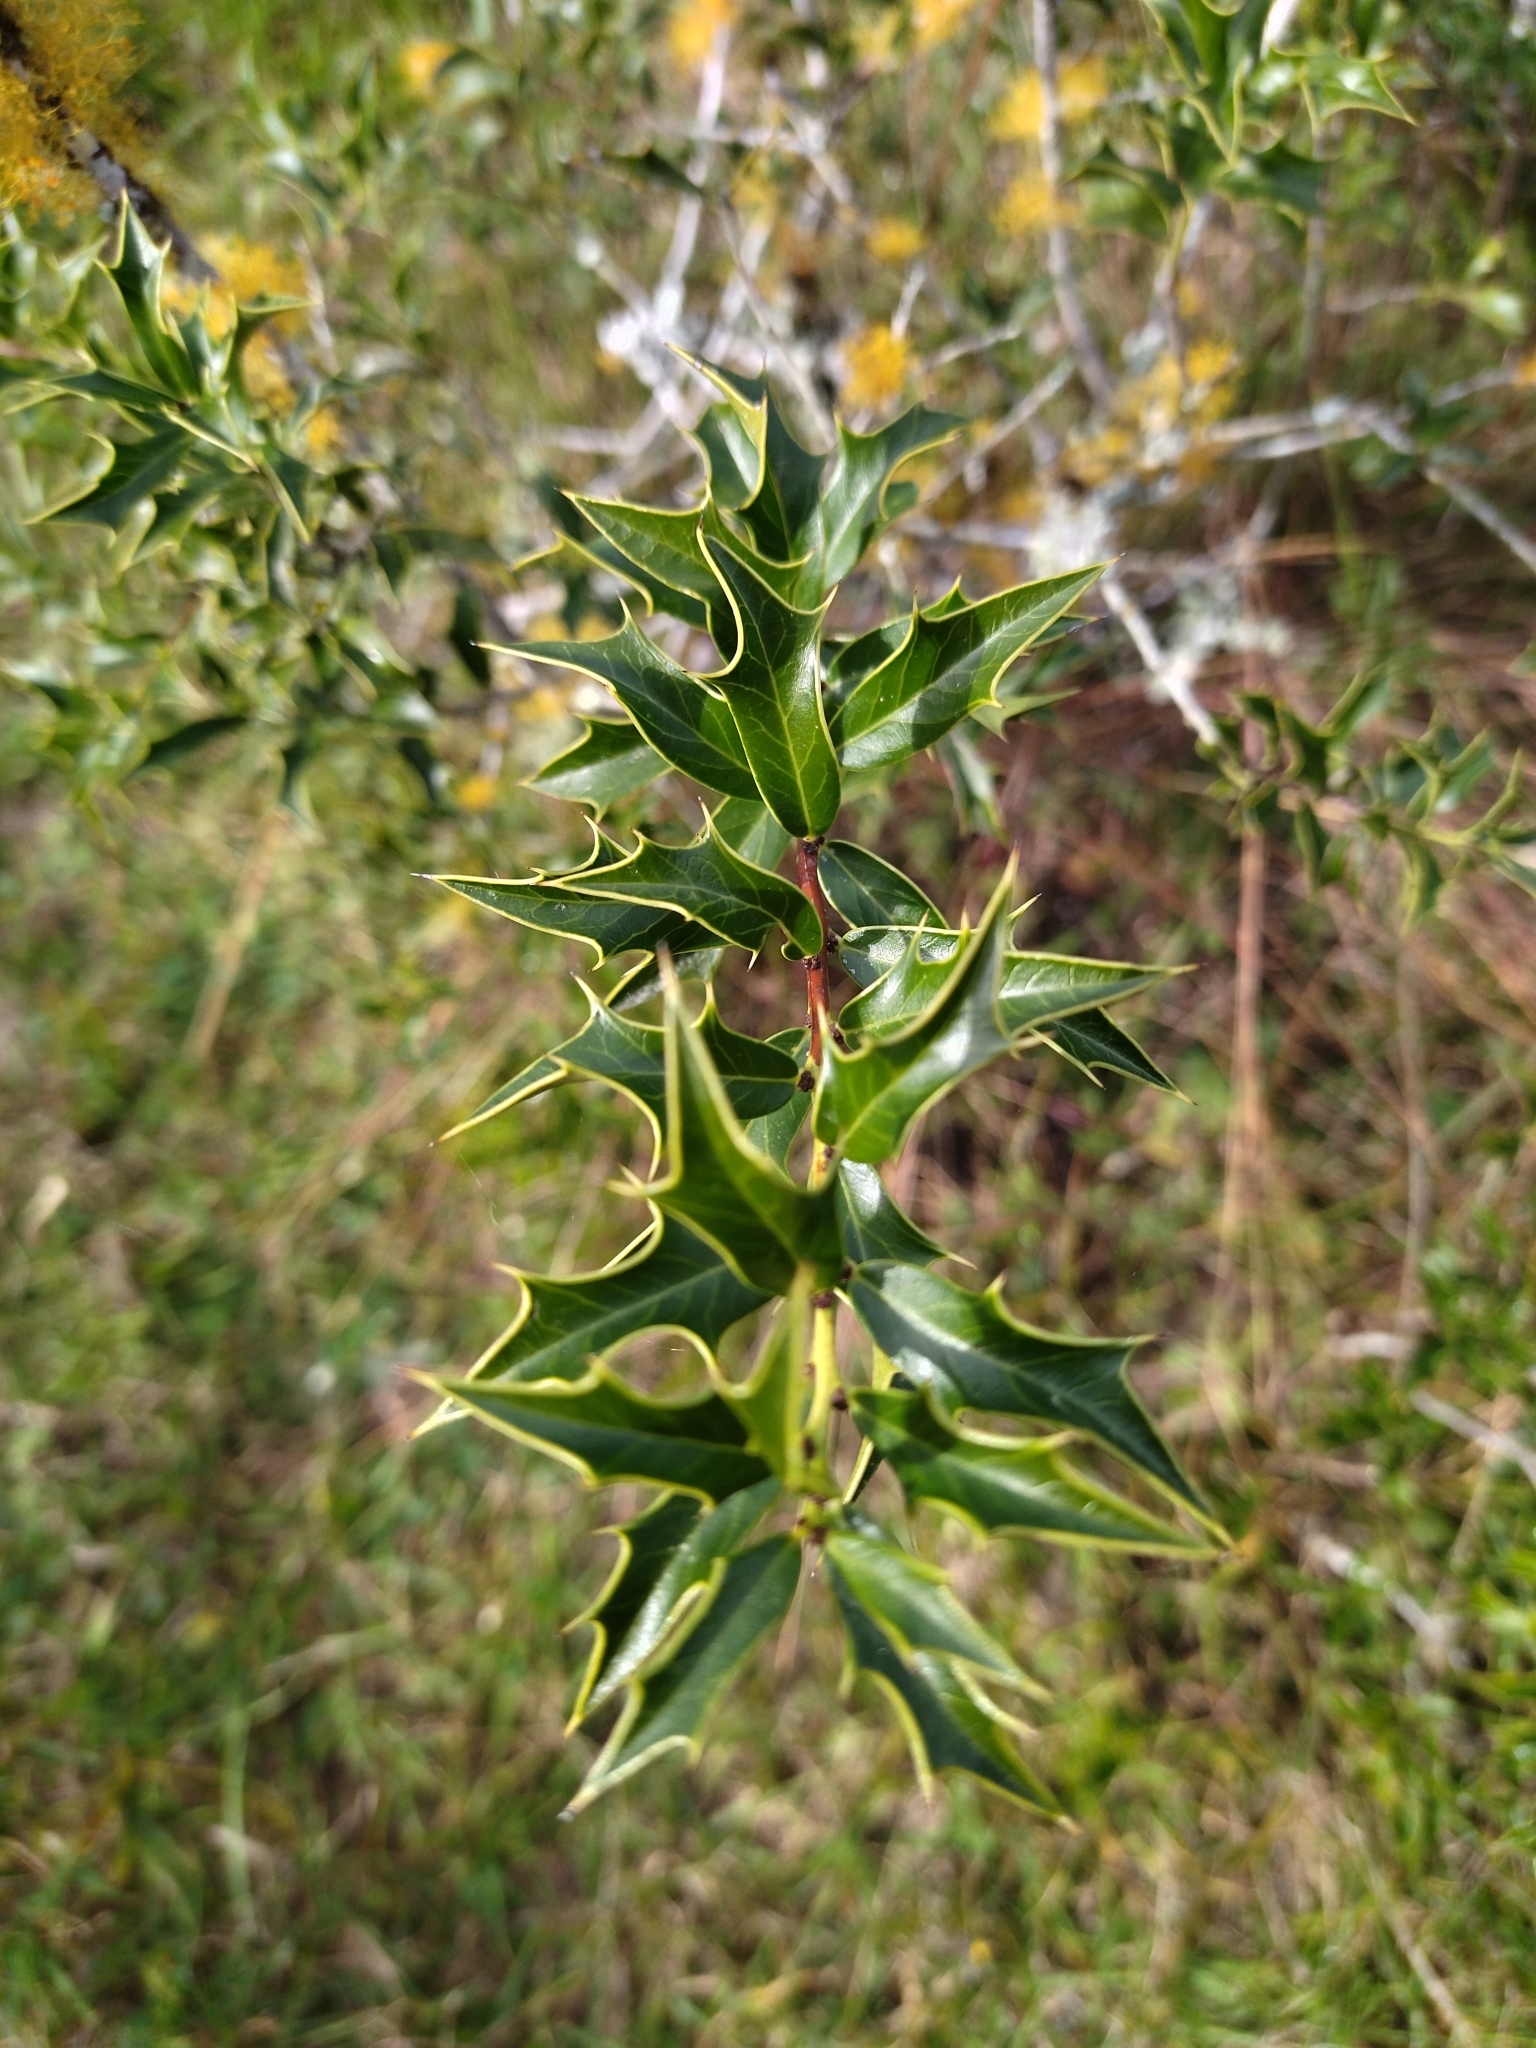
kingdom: Plantae
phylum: Tracheophyta
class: Magnoliopsida
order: Celastrales
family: Celastraceae
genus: Monteverdia
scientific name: Monteverdia
